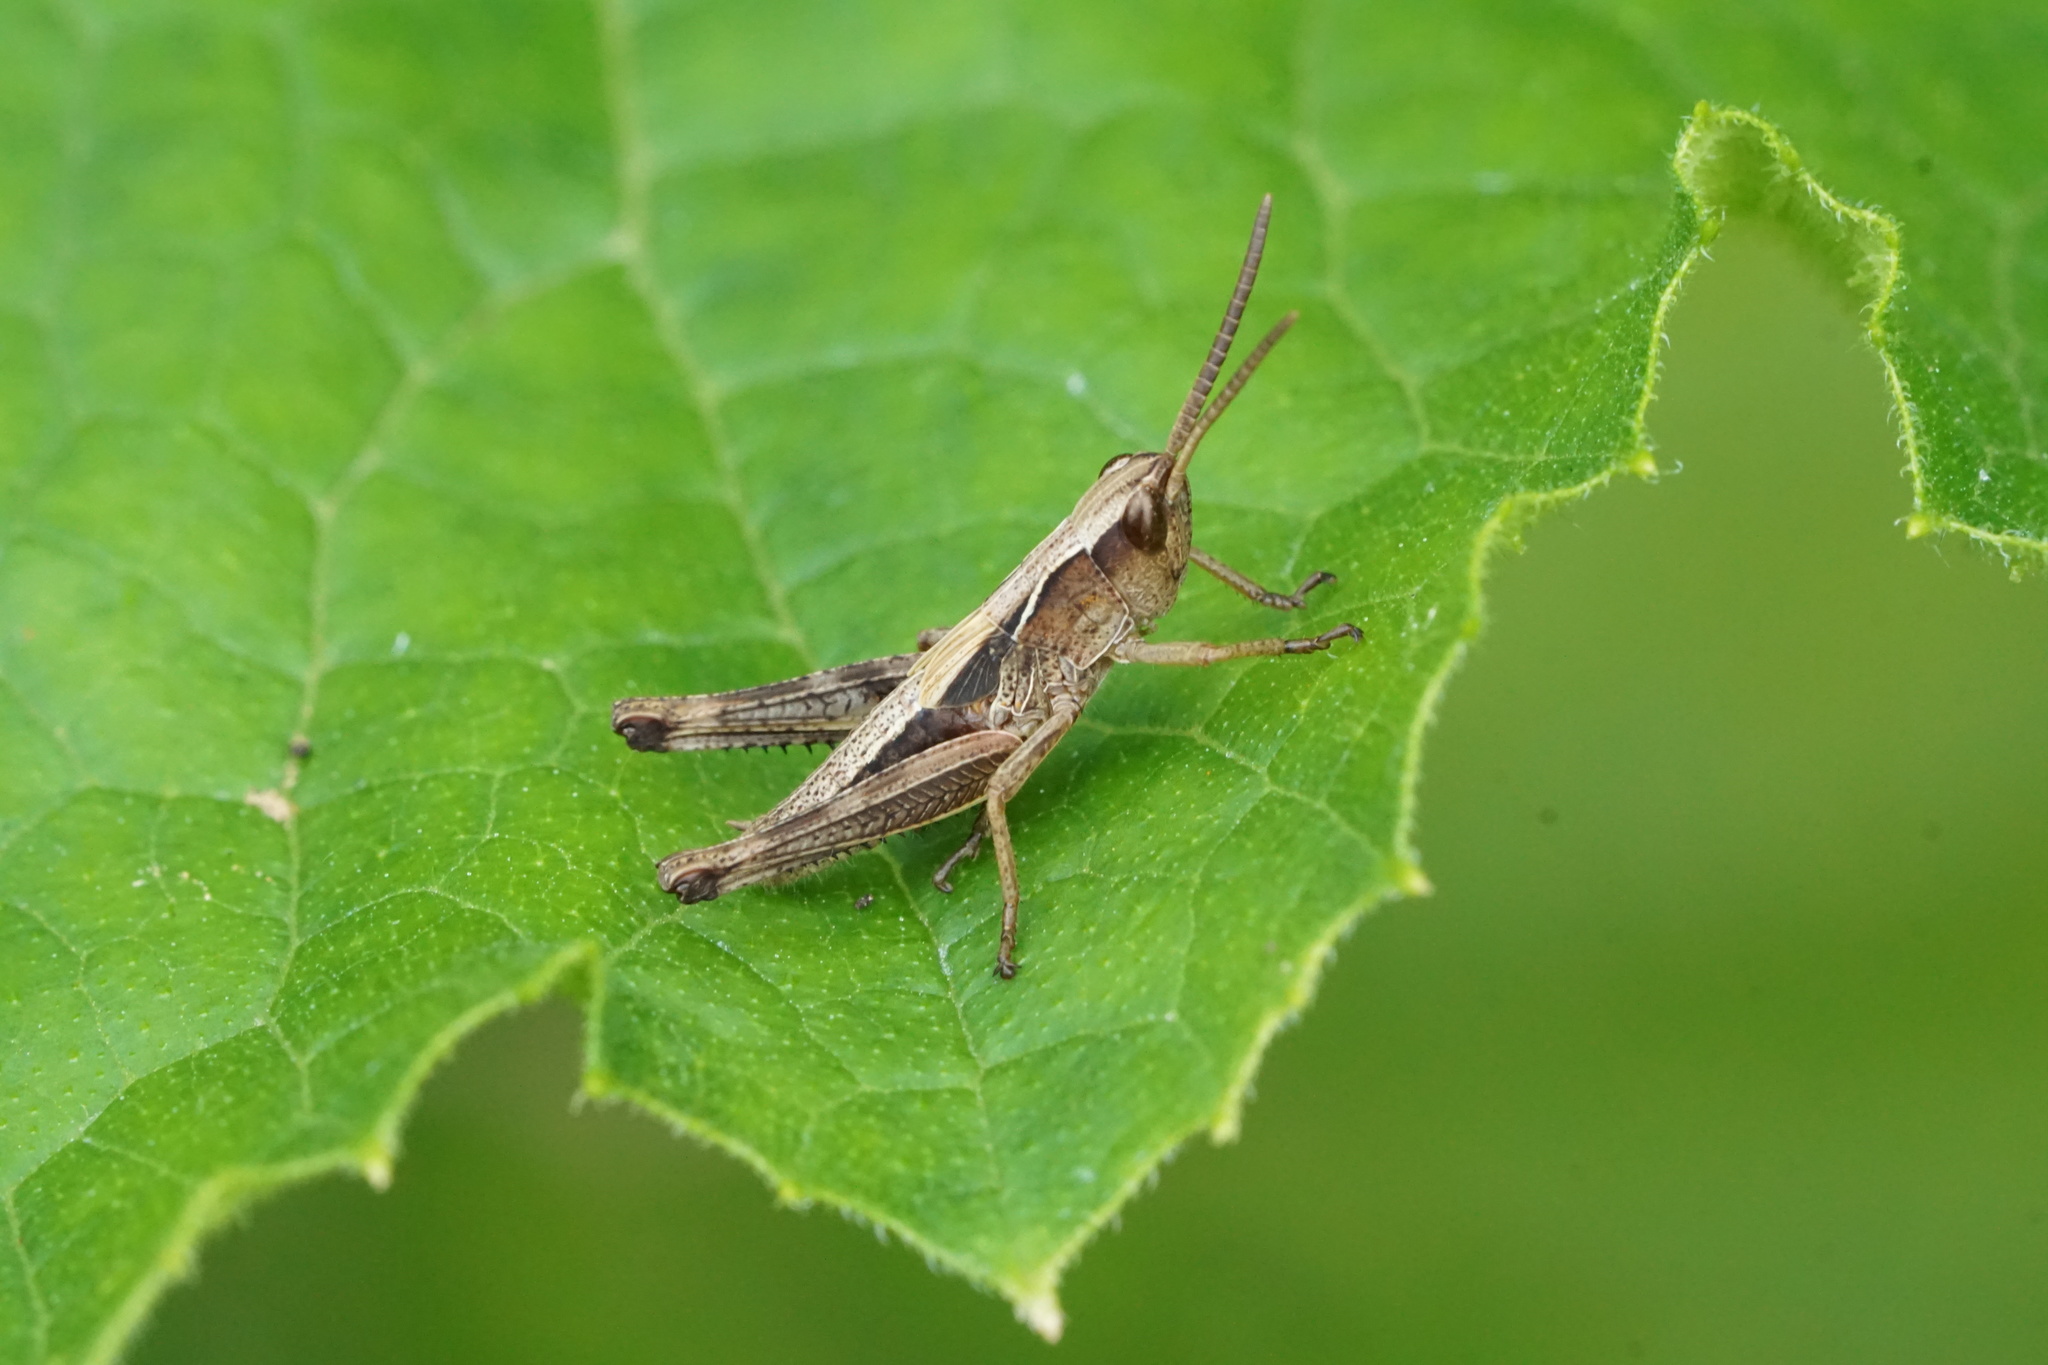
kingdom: Animalia
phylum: Arthropoda
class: Insecta
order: Orthoptera
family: Acrididae
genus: Pseudochorthippus
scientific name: Pseudochorthippus curtipennis
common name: Marsh meadow grasshopper
